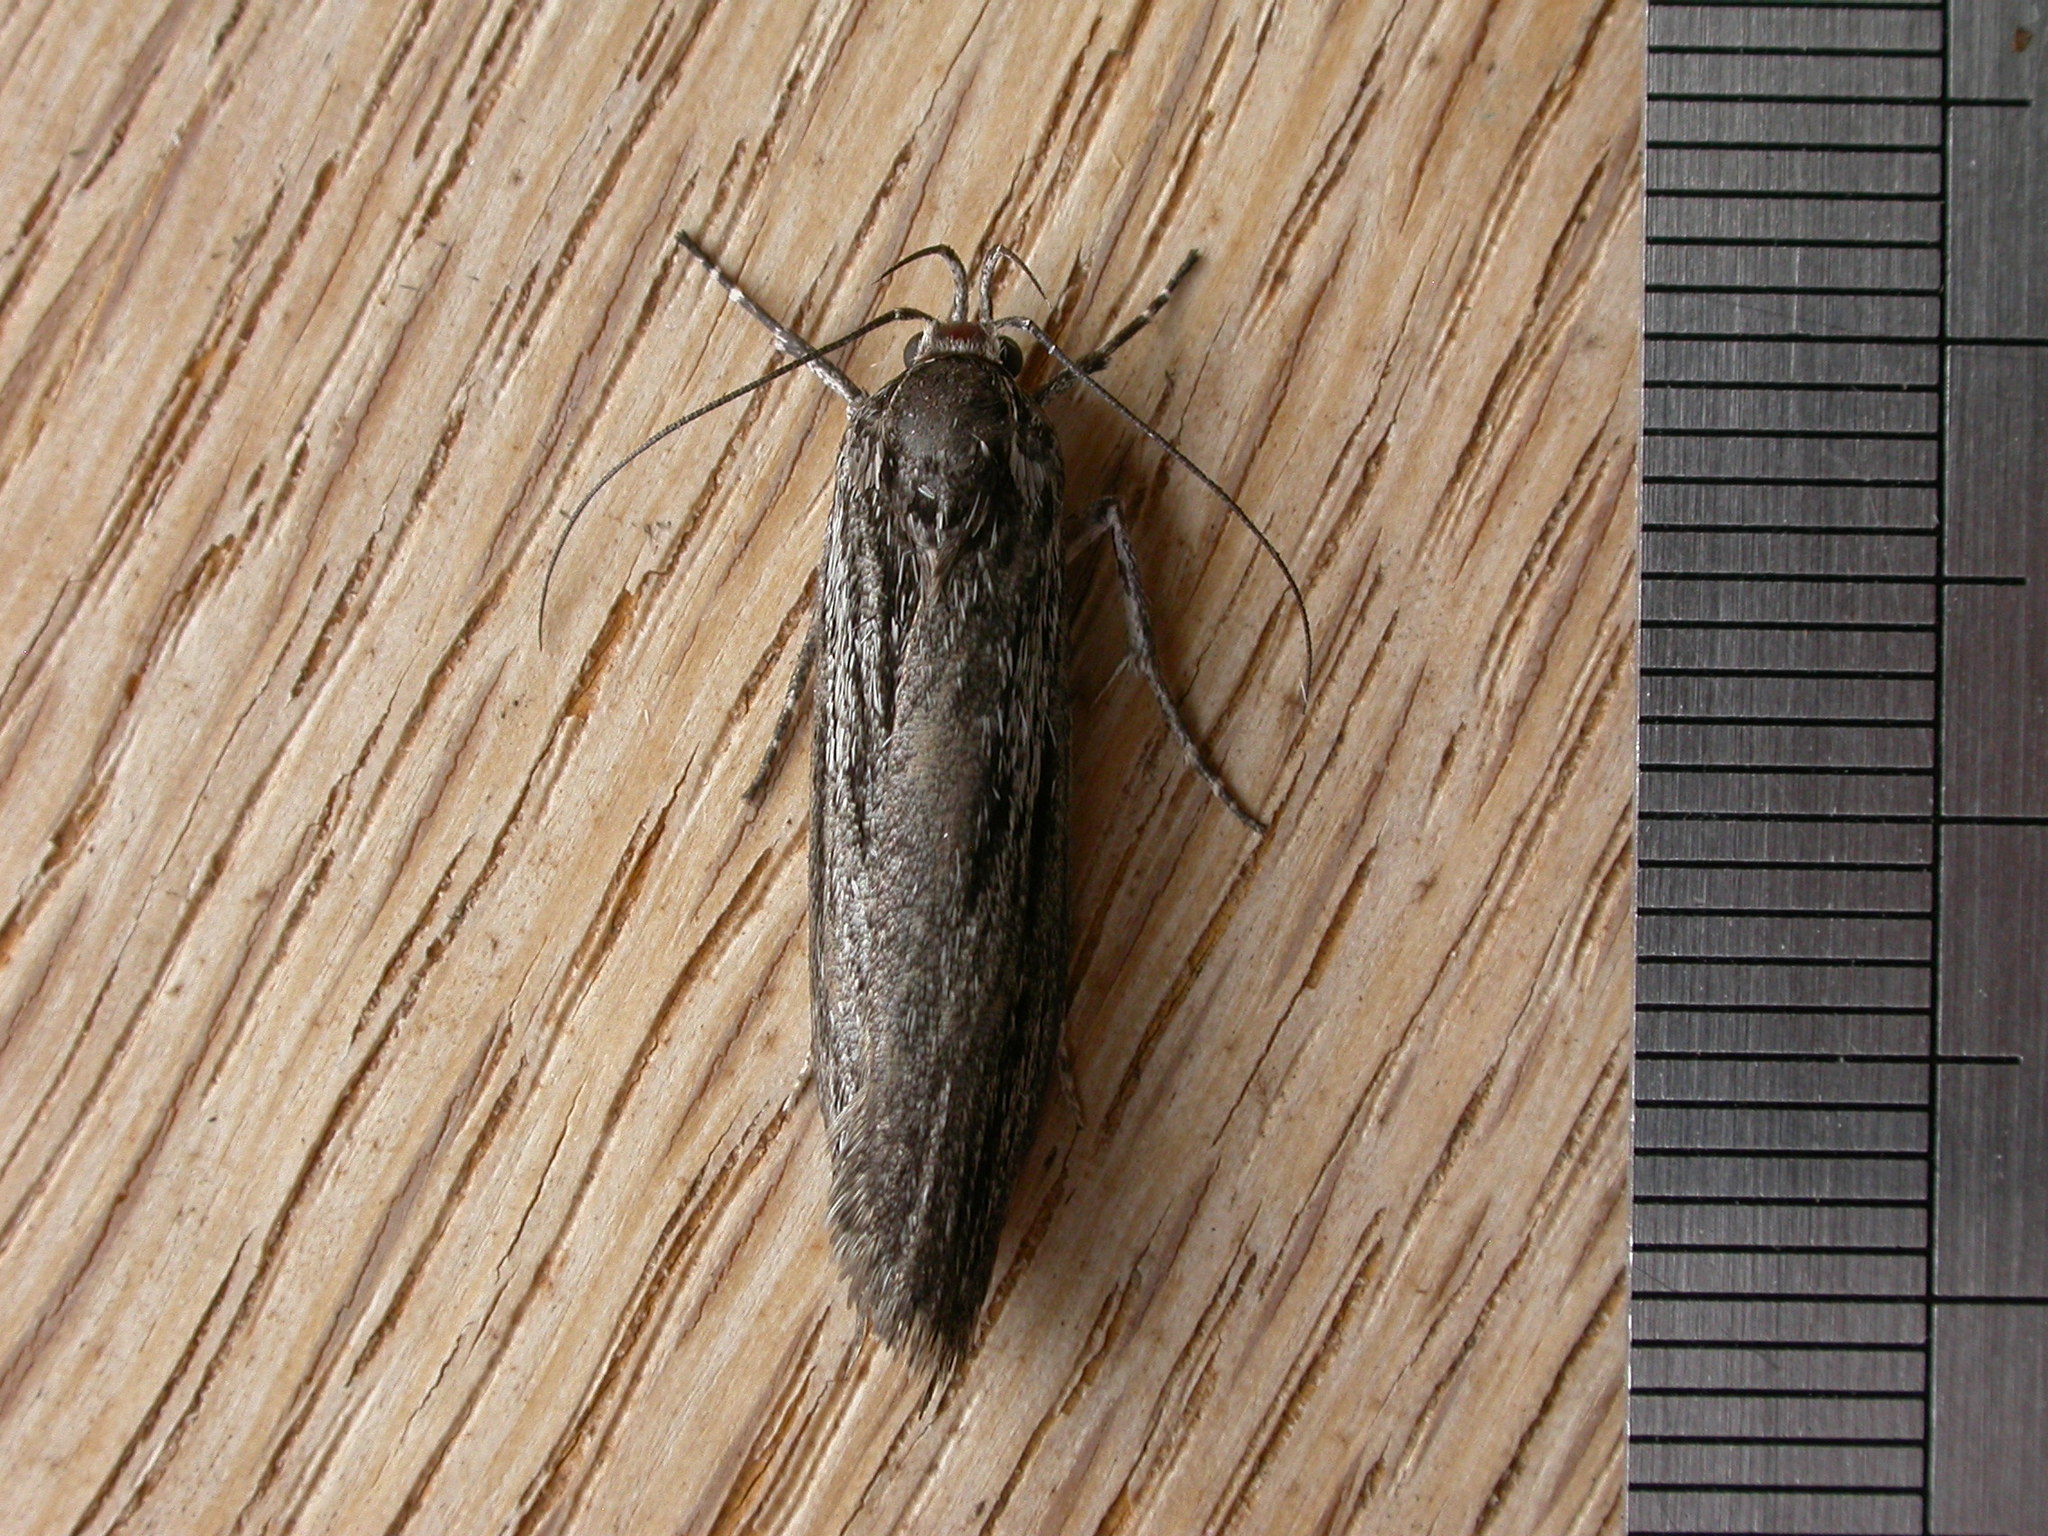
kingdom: Animalia
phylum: Arthropoda
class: Insecta
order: Lepidoptera
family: Autostichidae
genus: Procometis
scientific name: Procometis phloeodes
